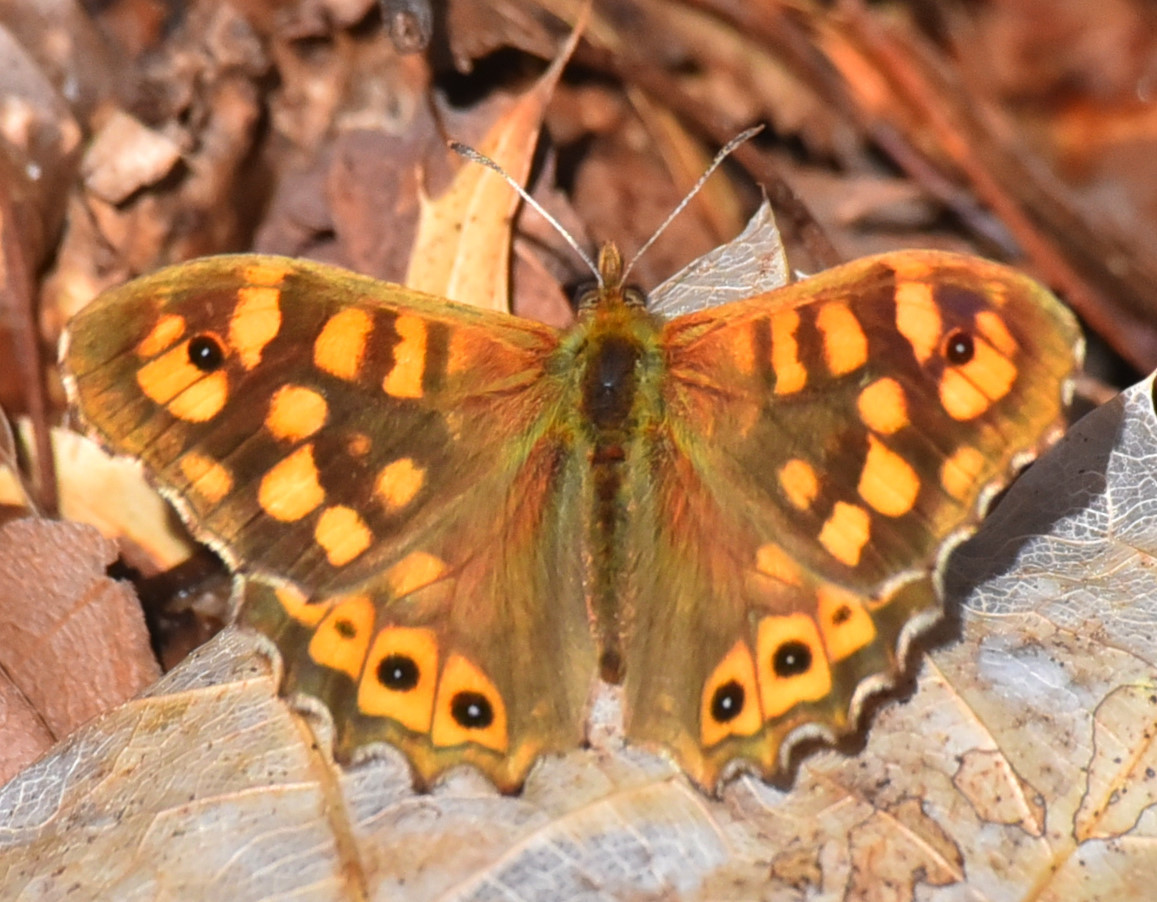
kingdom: Animalia
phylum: Arthropoda
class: Insecta
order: Lepidoptera
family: Nymphalidae
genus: Pararge
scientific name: Pararge aegeria
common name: Speckled wood
